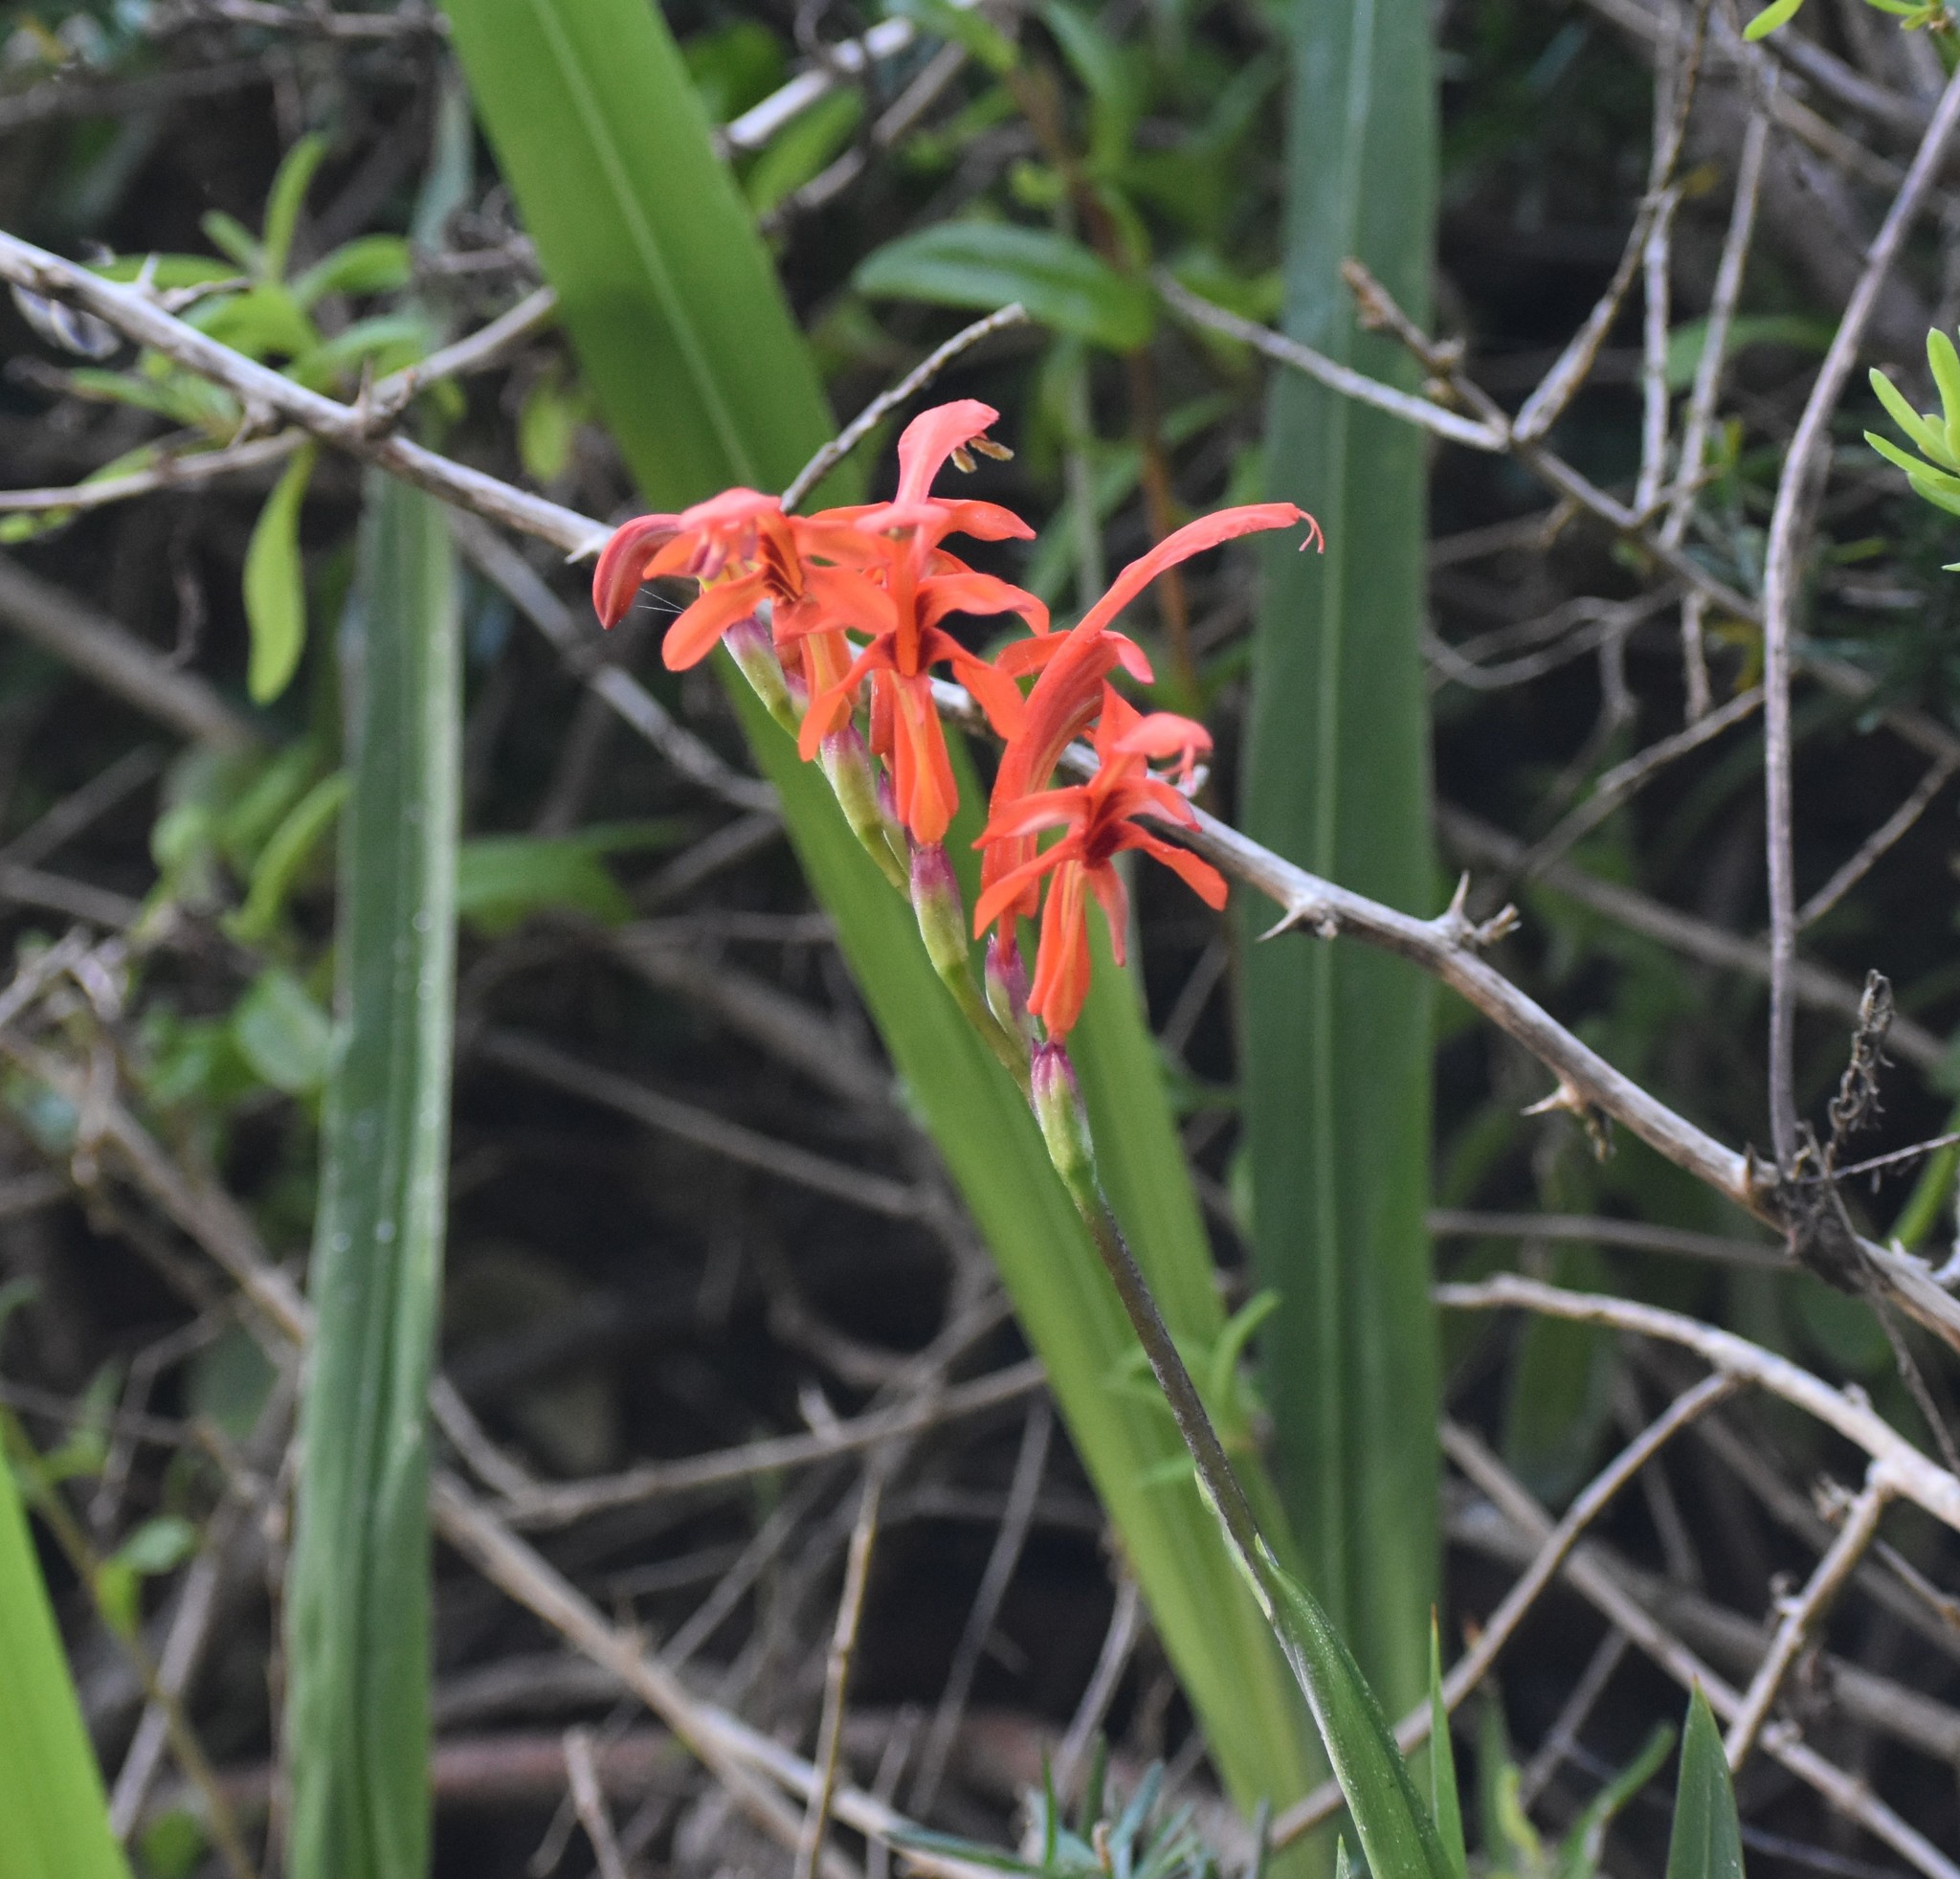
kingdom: Plantae
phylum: Tracheophyta
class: Liliopsida
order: Asparagales
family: Iridaceae
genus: Chasmanthe
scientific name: Chasmanthe aethiopica
